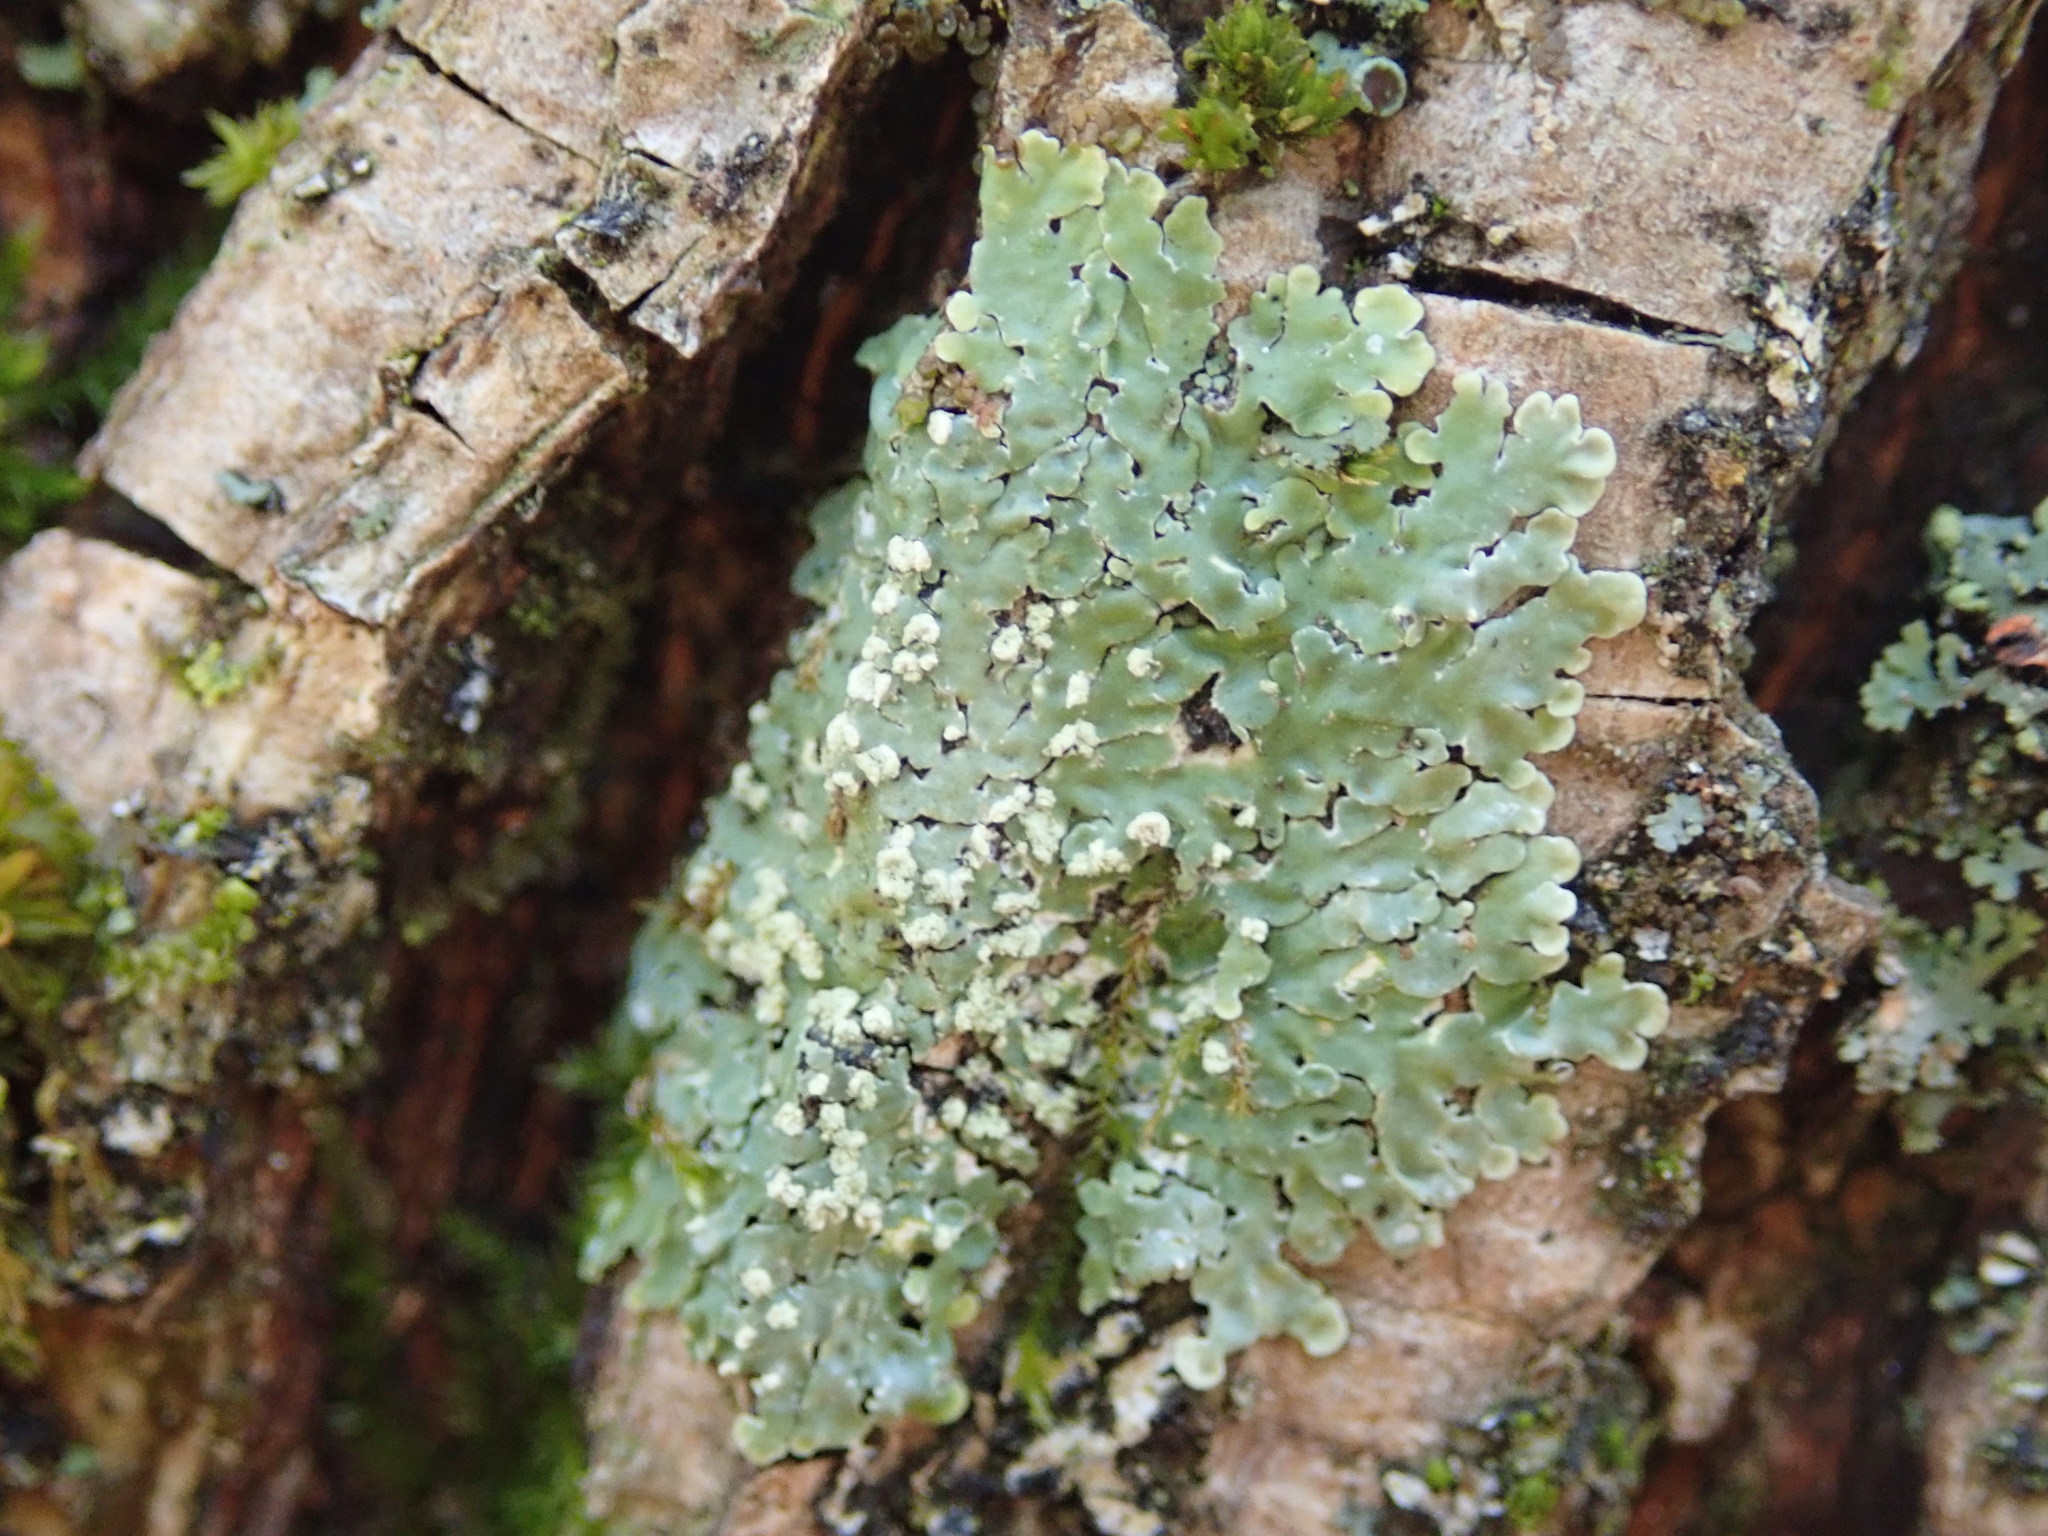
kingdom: Fungi
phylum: Ascomycota
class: Lecanoromycetes
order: Caliciales
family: Caliciaceae
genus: Pyxine
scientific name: Pyxine subcinerea
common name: Mustard lichen
